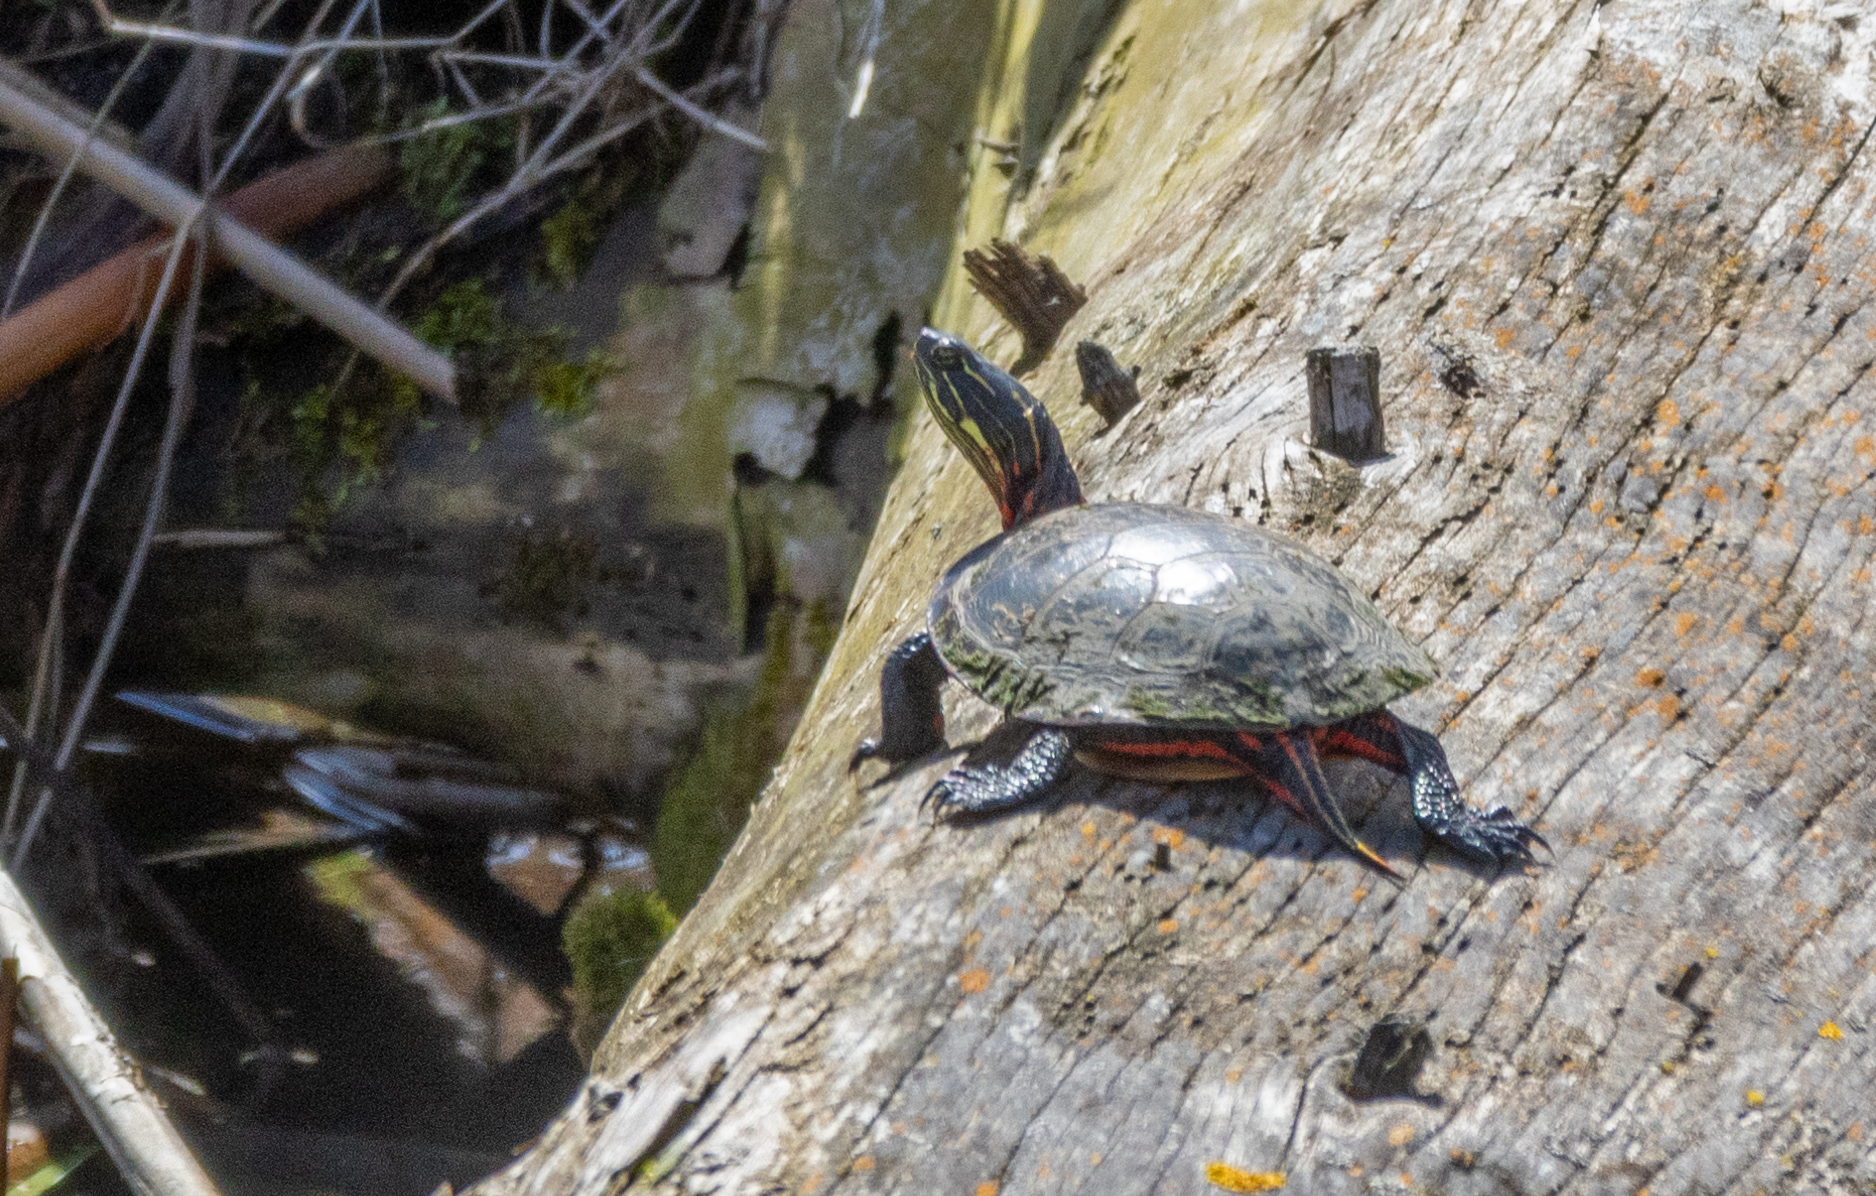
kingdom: Animalia
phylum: Chordata
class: Testudines
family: Emydidae
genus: Chrysemys
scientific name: Chrysemys picta
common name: Painted turtle
